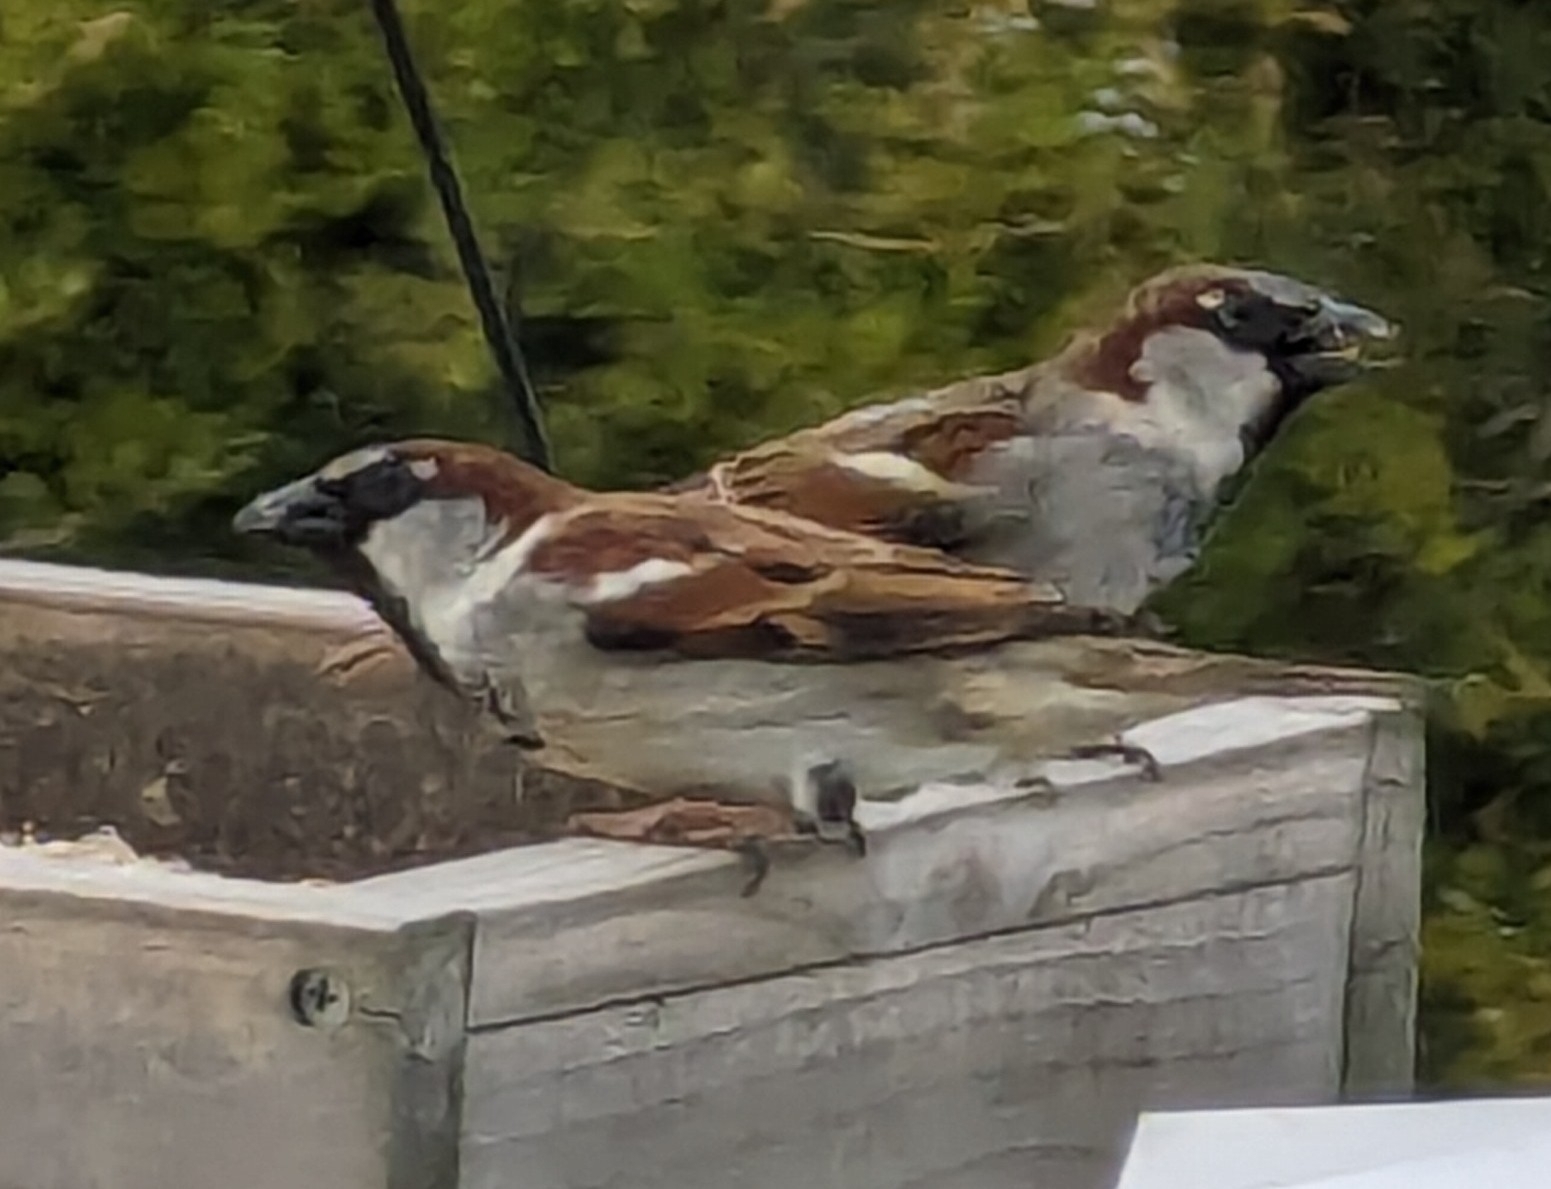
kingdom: Animalia
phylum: Chordata
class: Aves
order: Passeriformes
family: Passeridae
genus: Passer
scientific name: Passer domesticus
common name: House sparrow
